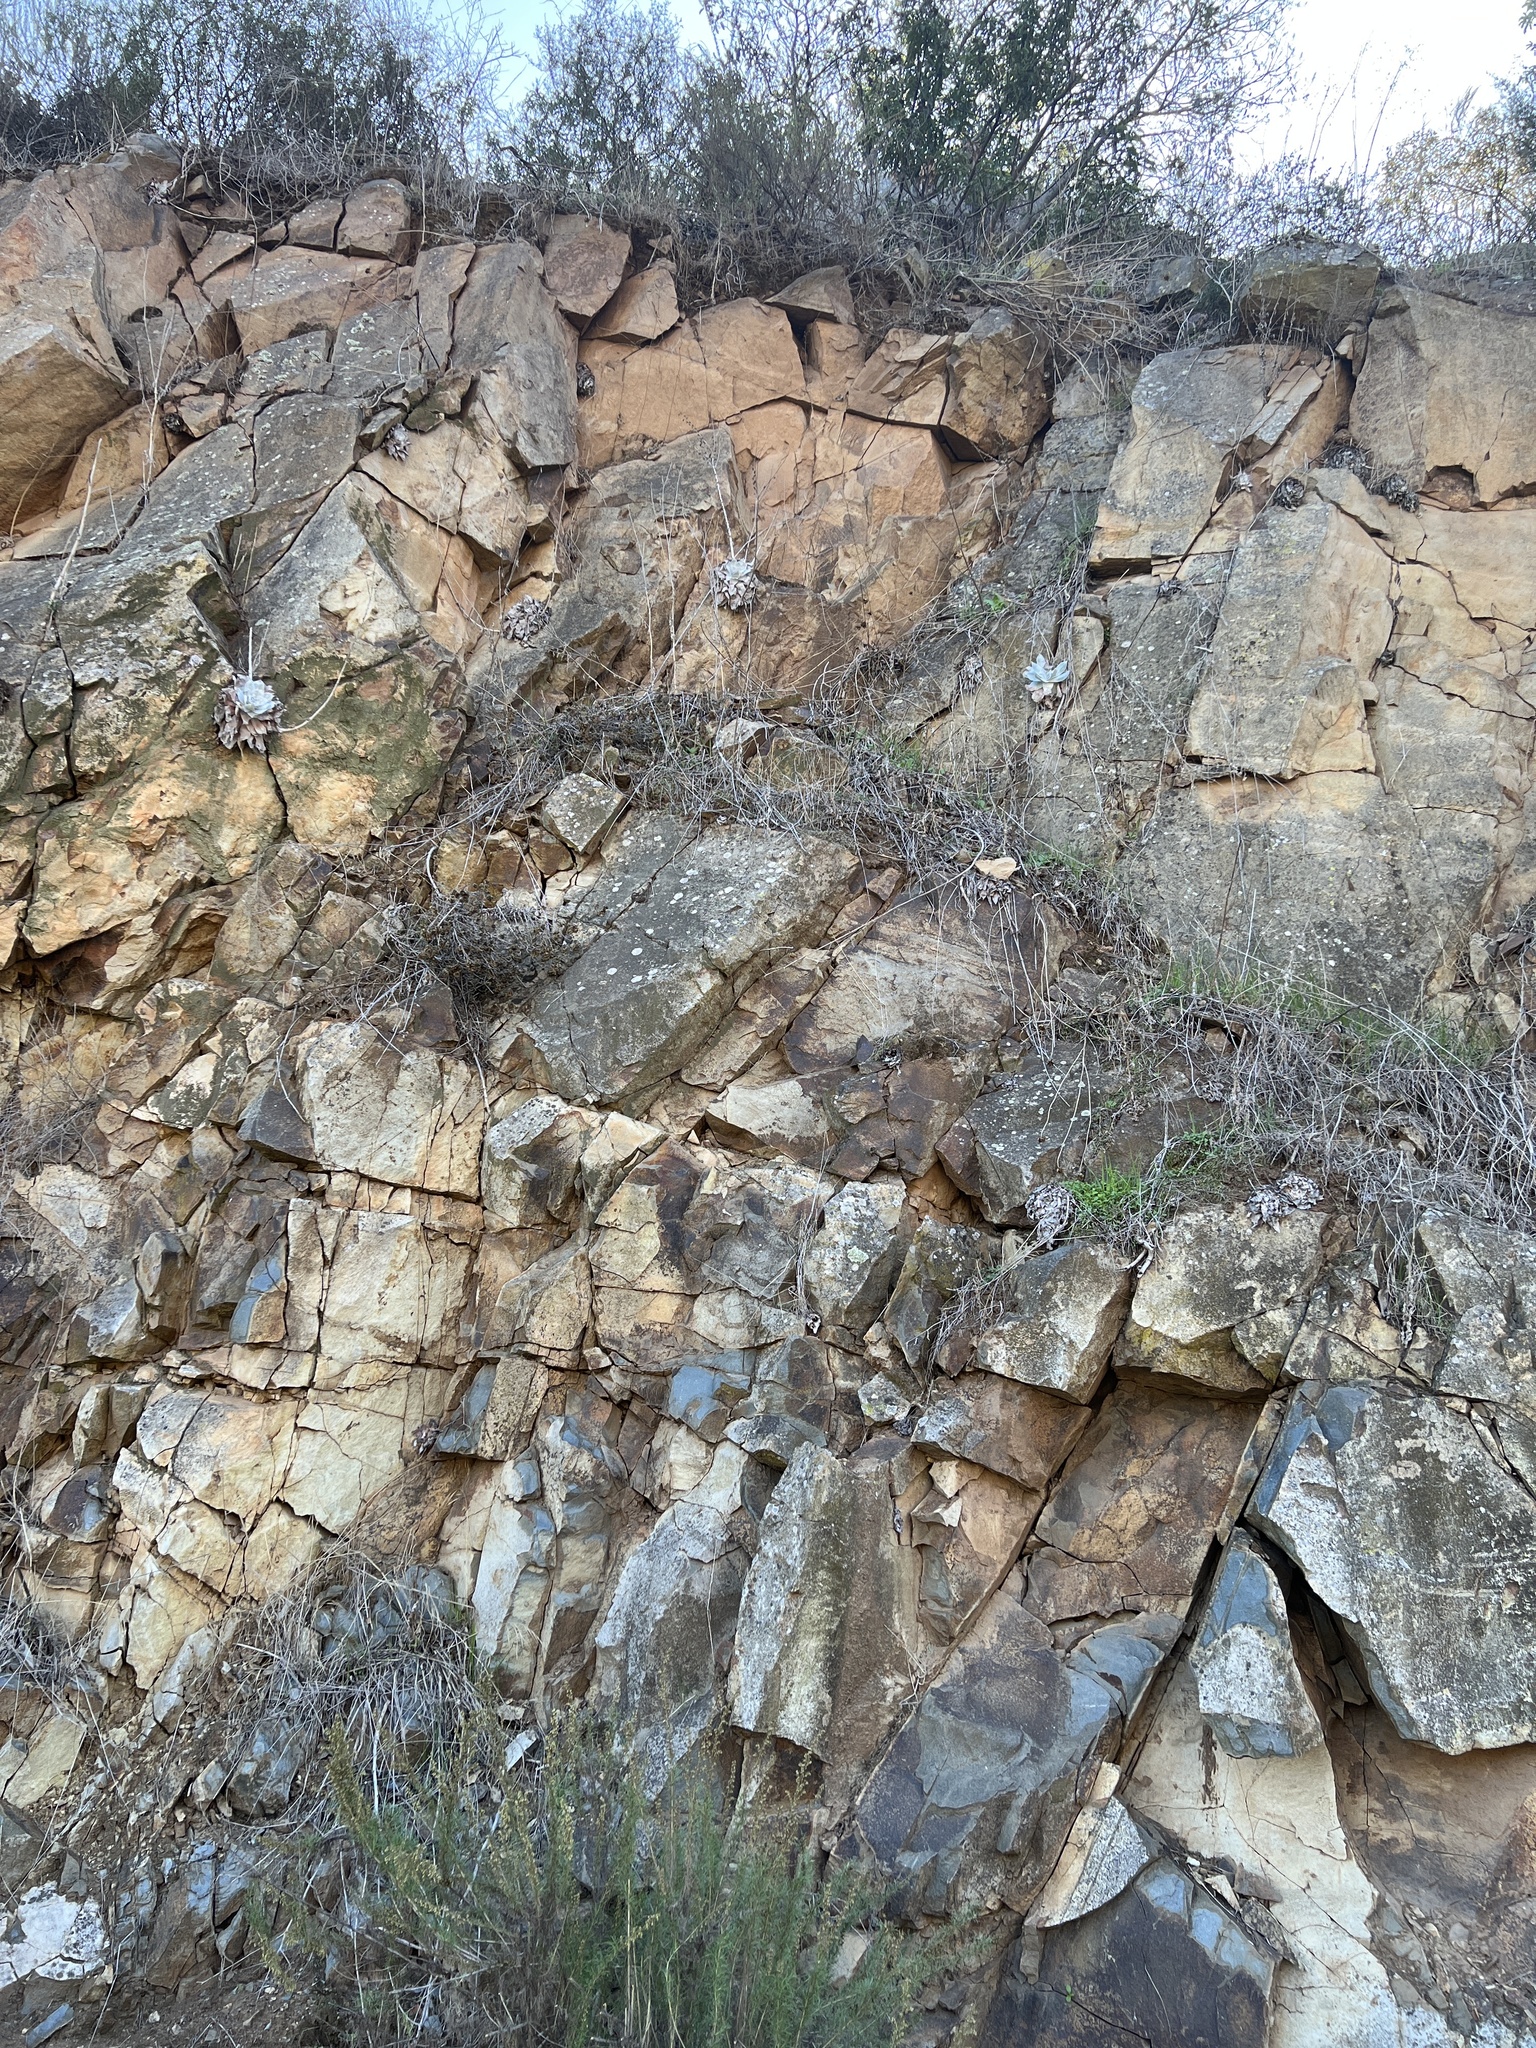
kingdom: Plantae
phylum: Tracheophyta
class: Magnoliopsida
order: Saxifragales
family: Crassulaceae
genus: Dudleya
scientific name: Dudleya pulverulenta
